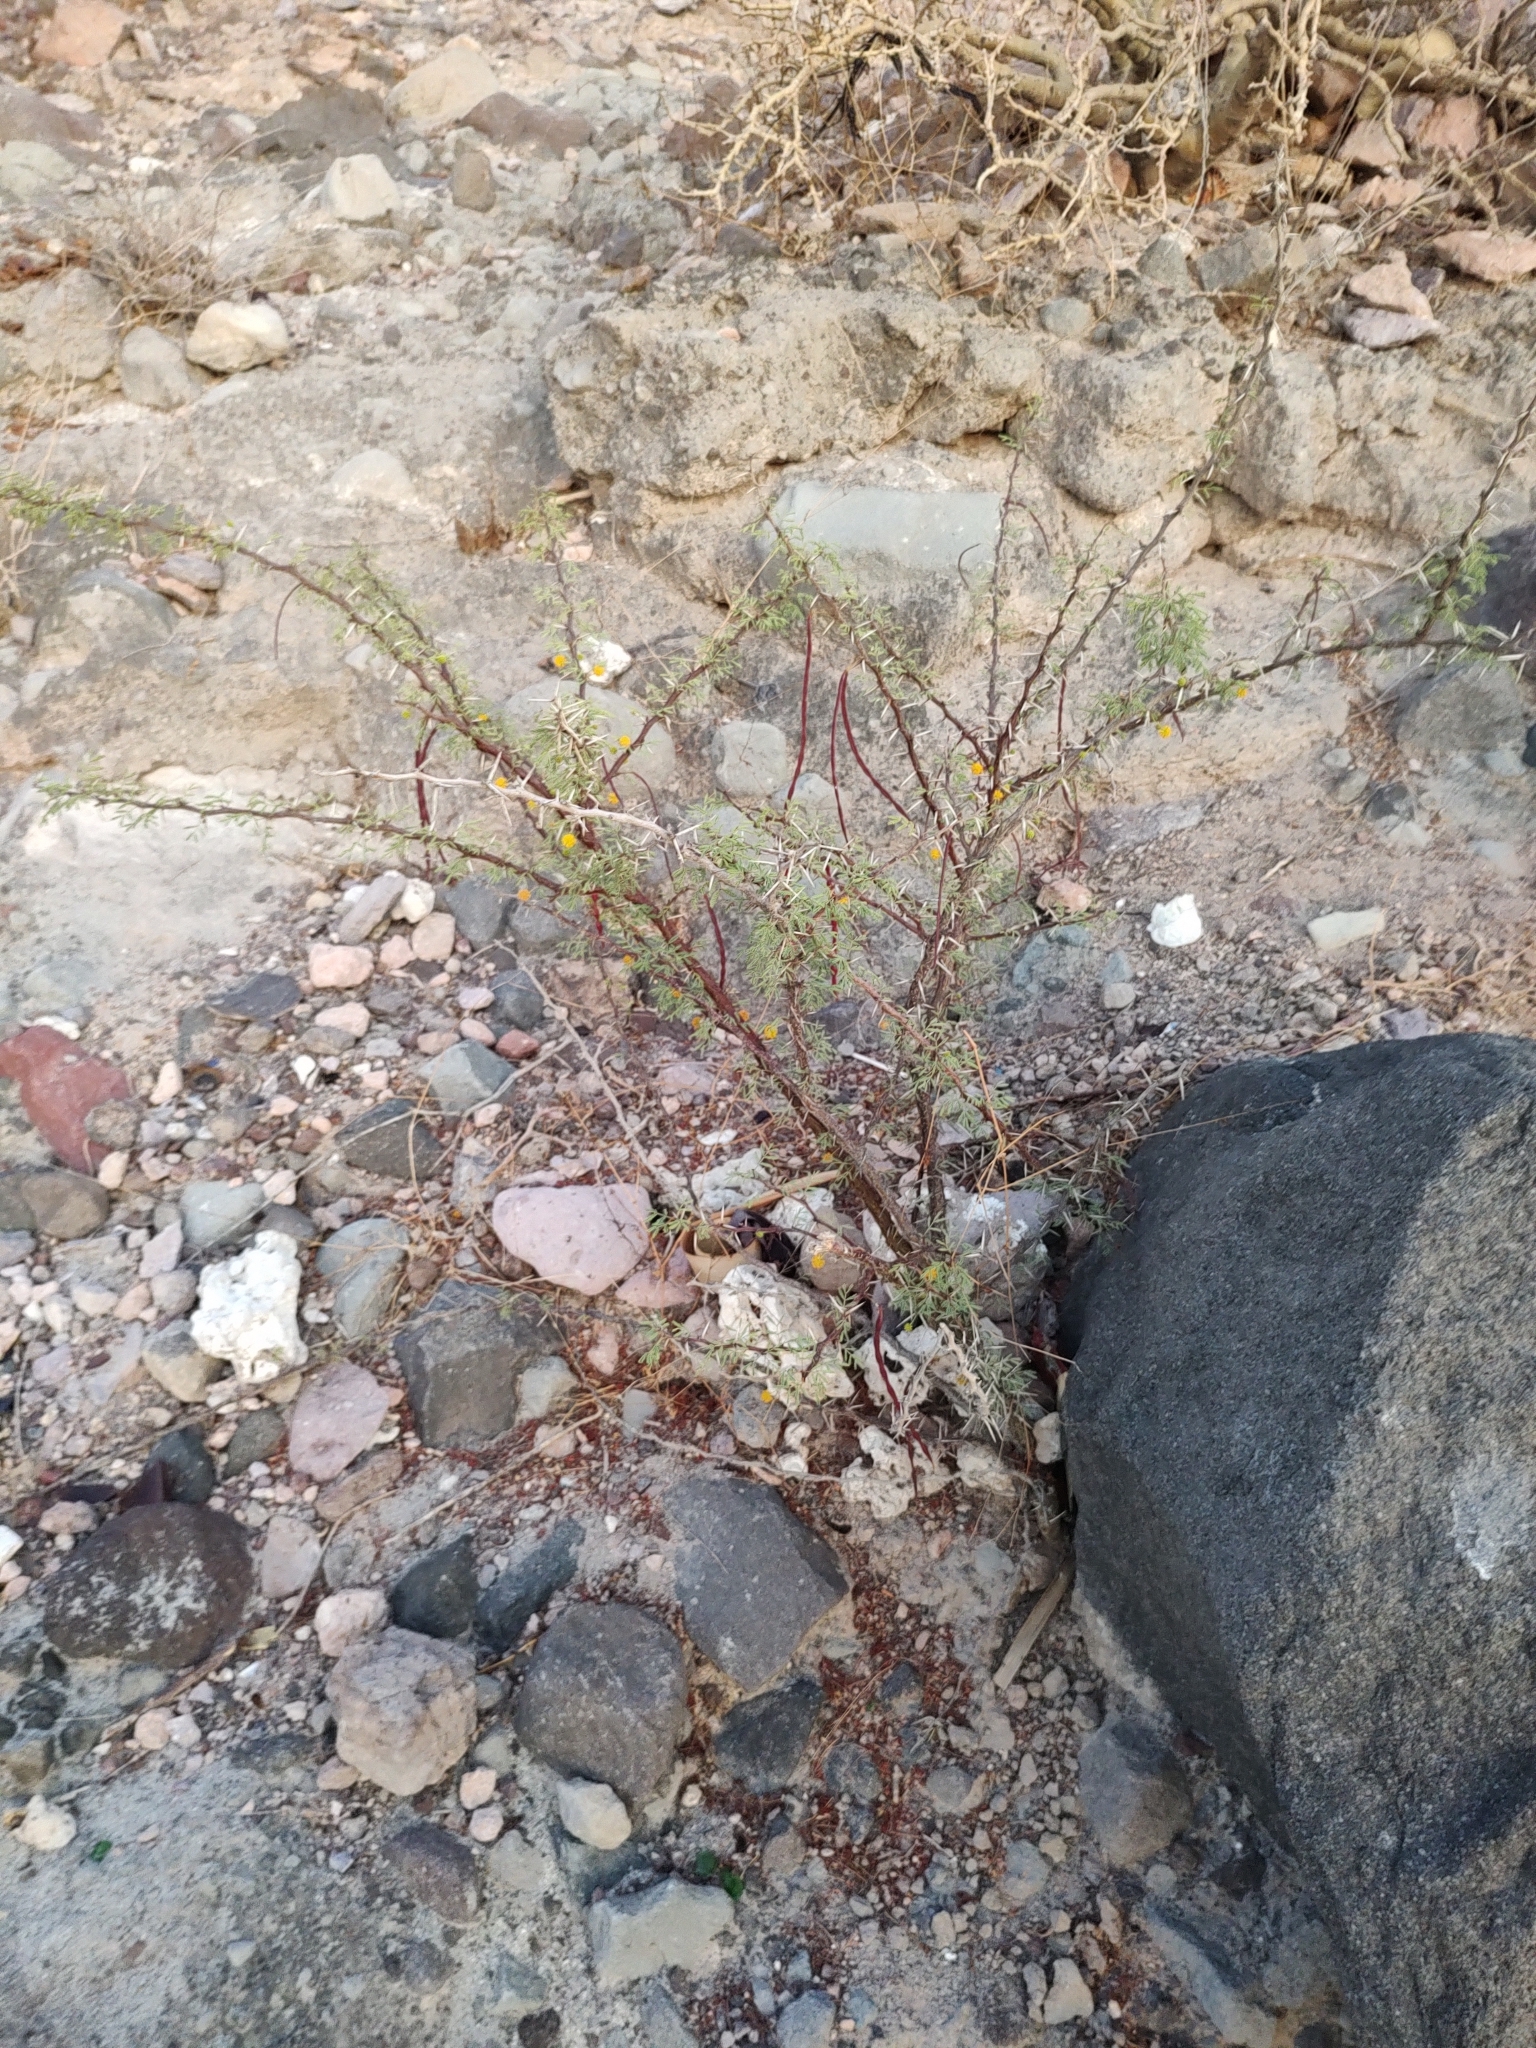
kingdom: Plantae
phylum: Tracheophyta
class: Magnoliopsida
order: Fabales
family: Fabaceae
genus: Vachellia
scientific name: Vachellia pacensis
